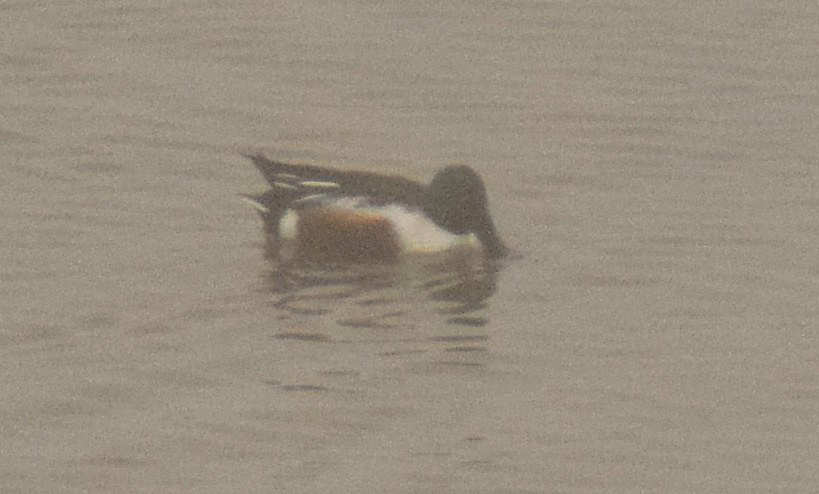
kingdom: Animalia
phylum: Chordata
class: Aves
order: Anseriformes
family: Anatidae
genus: Spatula
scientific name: Spatula clypeata
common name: Northern shoveler
